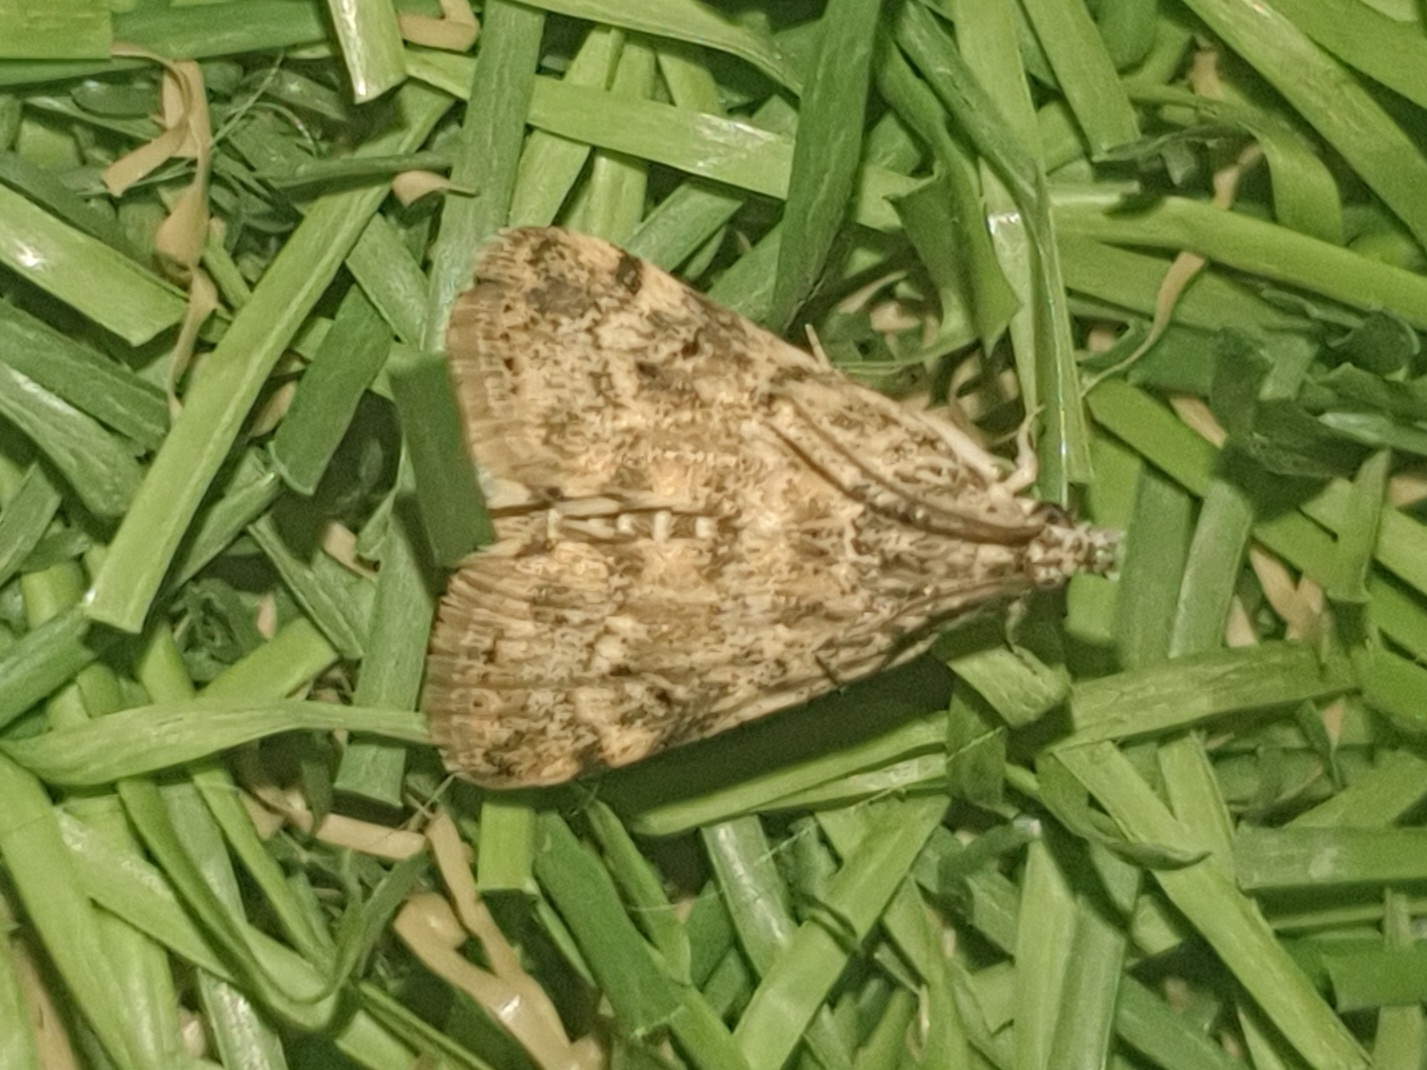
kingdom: Animalia
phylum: Arthropoda
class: Insecta
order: Lepidoptera
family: Crambidae
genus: Noctuelia
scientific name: Noctuelia Aporodes floralis
